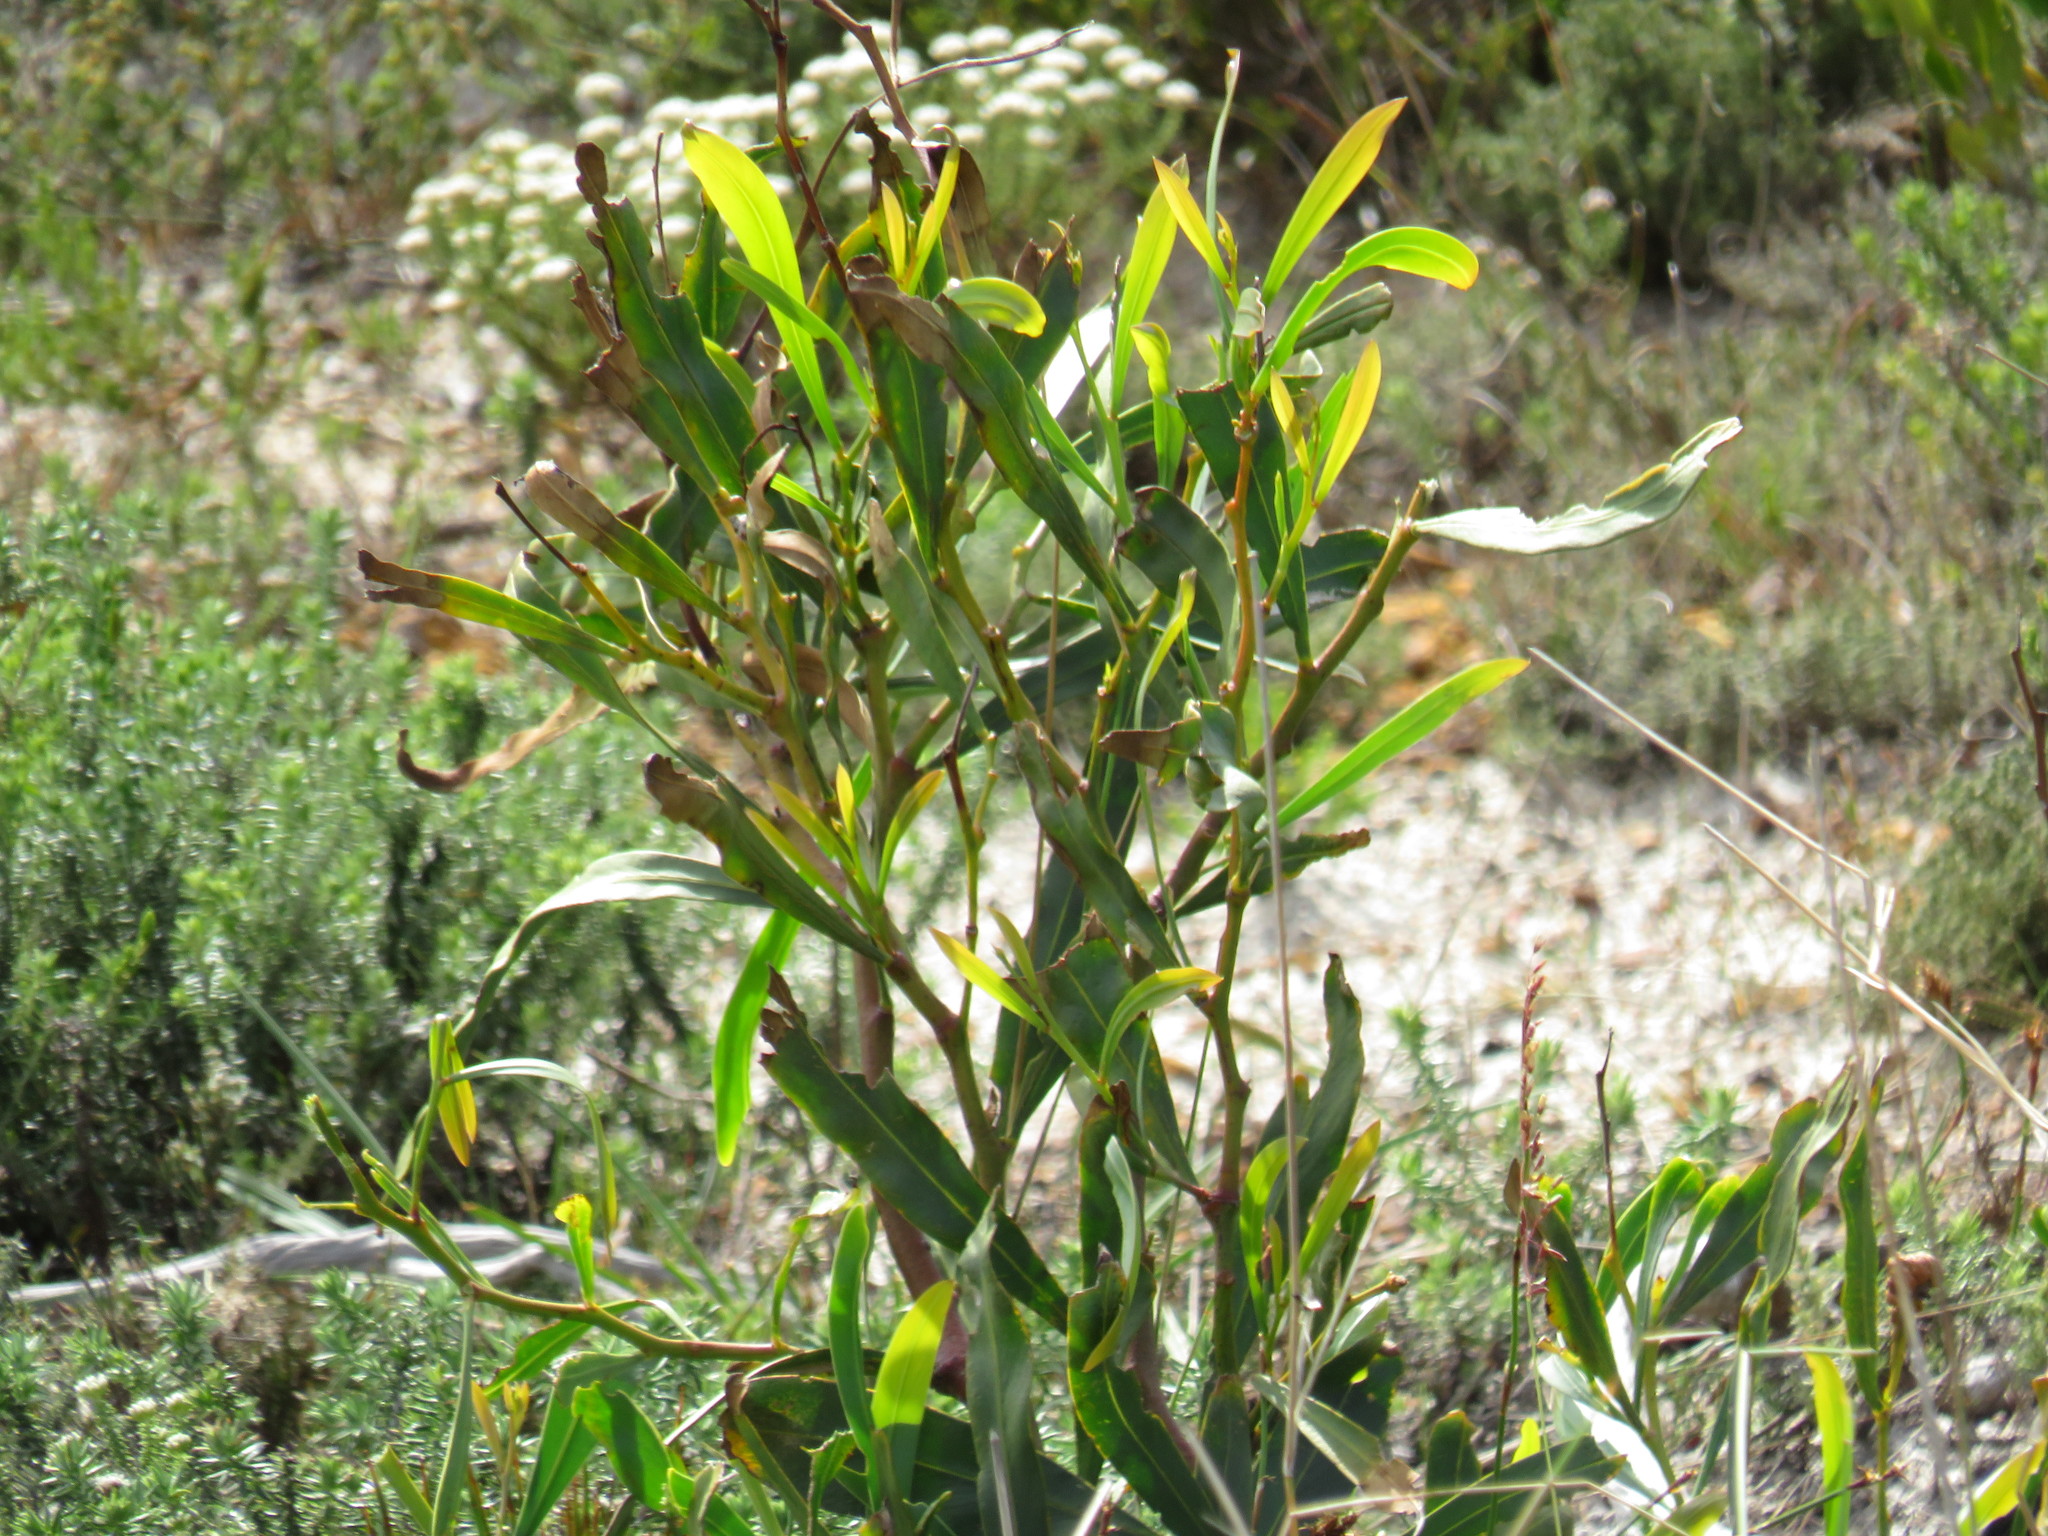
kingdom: Plantae
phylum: Tracheophyta
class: Magnoliopsida
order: Fabales
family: Fabaceae
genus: Acacia
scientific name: Acacia saligna
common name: Orange wattle
